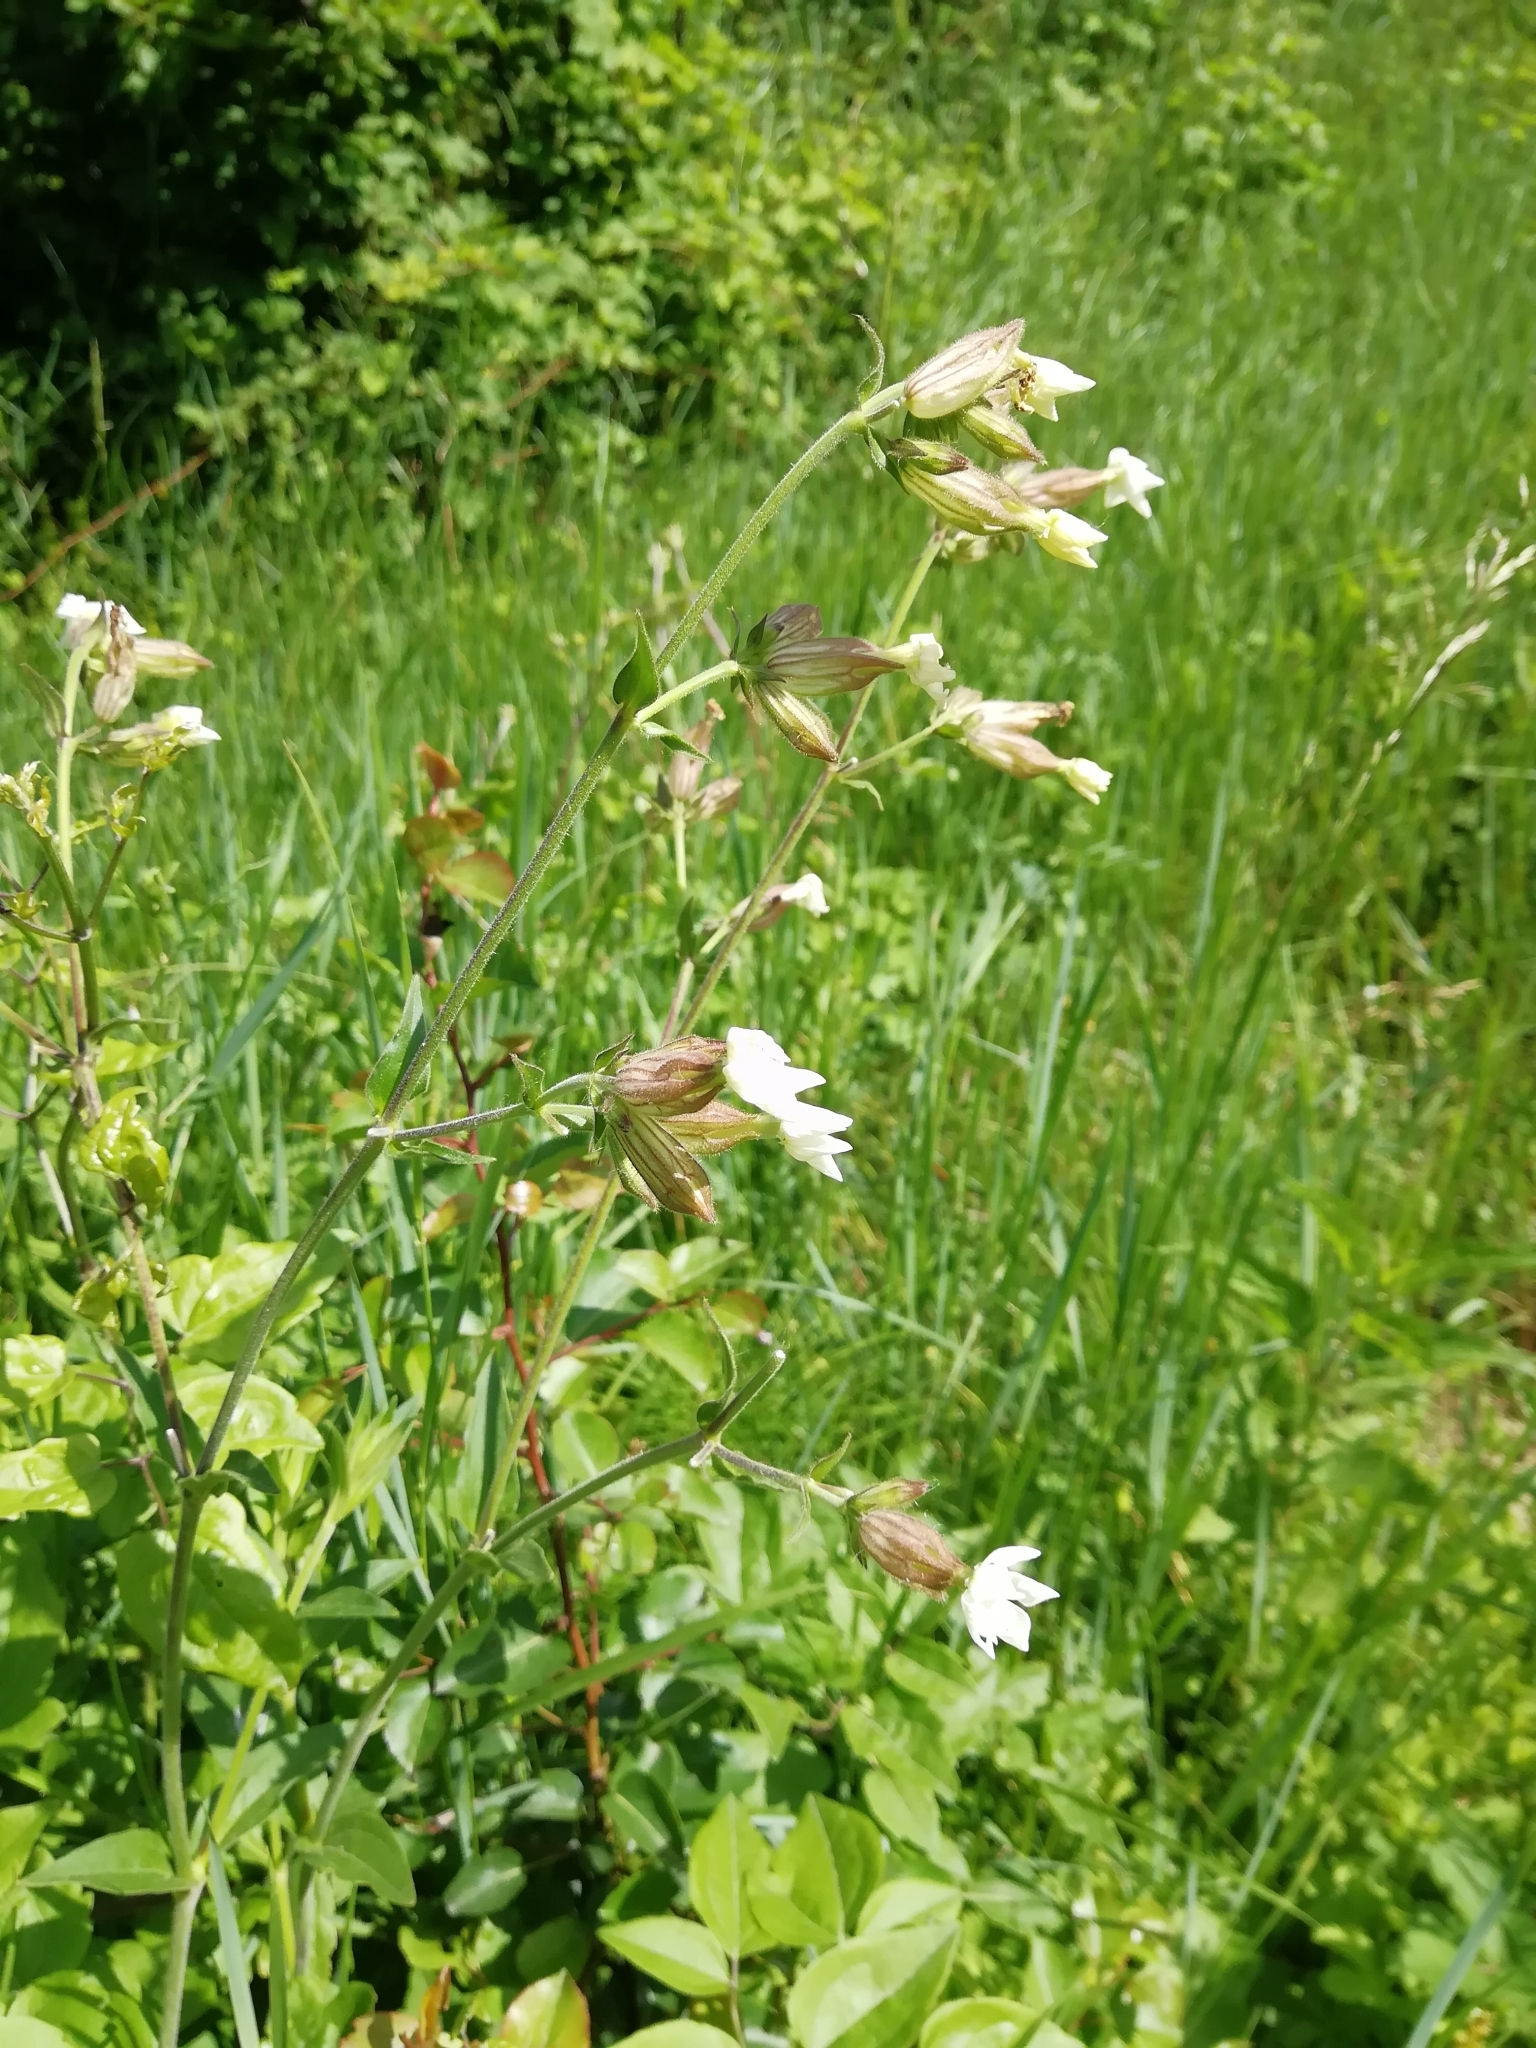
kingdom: Plantae
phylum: Tracheophyta
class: Magnoliopsida
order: Caryophyllales
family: Caryophyllaceae
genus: Silene
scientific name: Silene latifolia
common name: White campion
